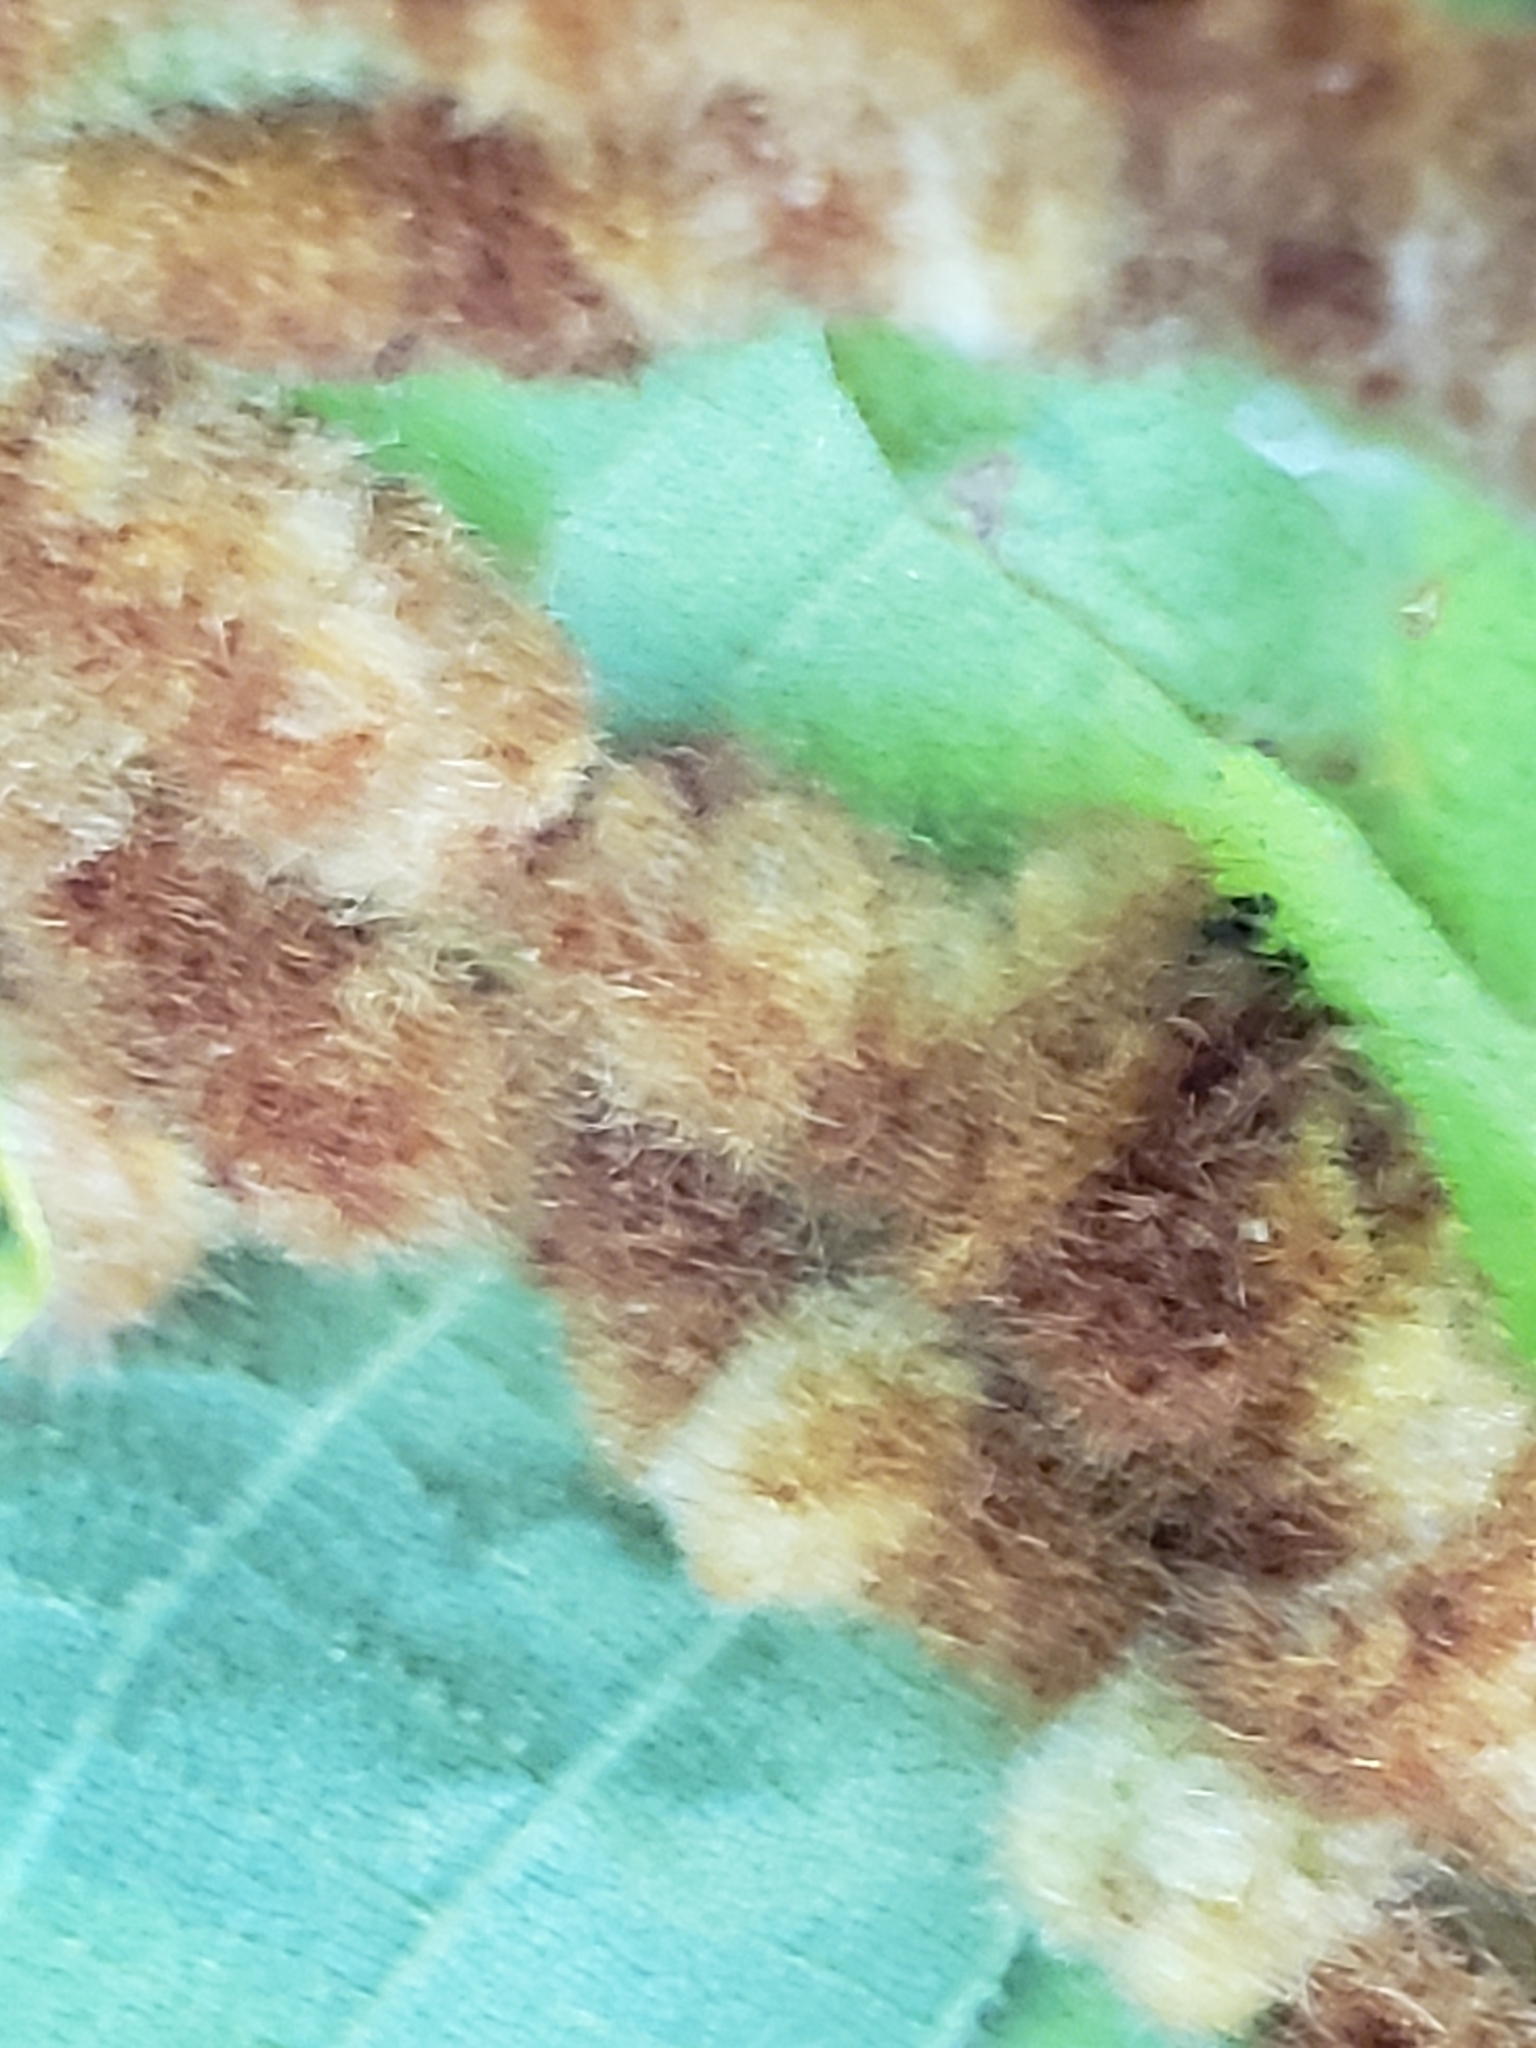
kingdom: Animalia
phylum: Arthropoda
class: Insecta
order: Diptera
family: Cecidomyiidae
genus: Caryomyia
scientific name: Caryomyia aggregata
